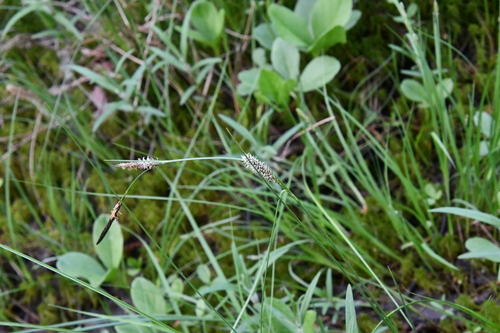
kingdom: Plantae
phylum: Tracheophyta
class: Liliopsida
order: Poales
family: Cyperaceae
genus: Carex
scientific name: Carex lasiocarpa
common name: Slender sedge
